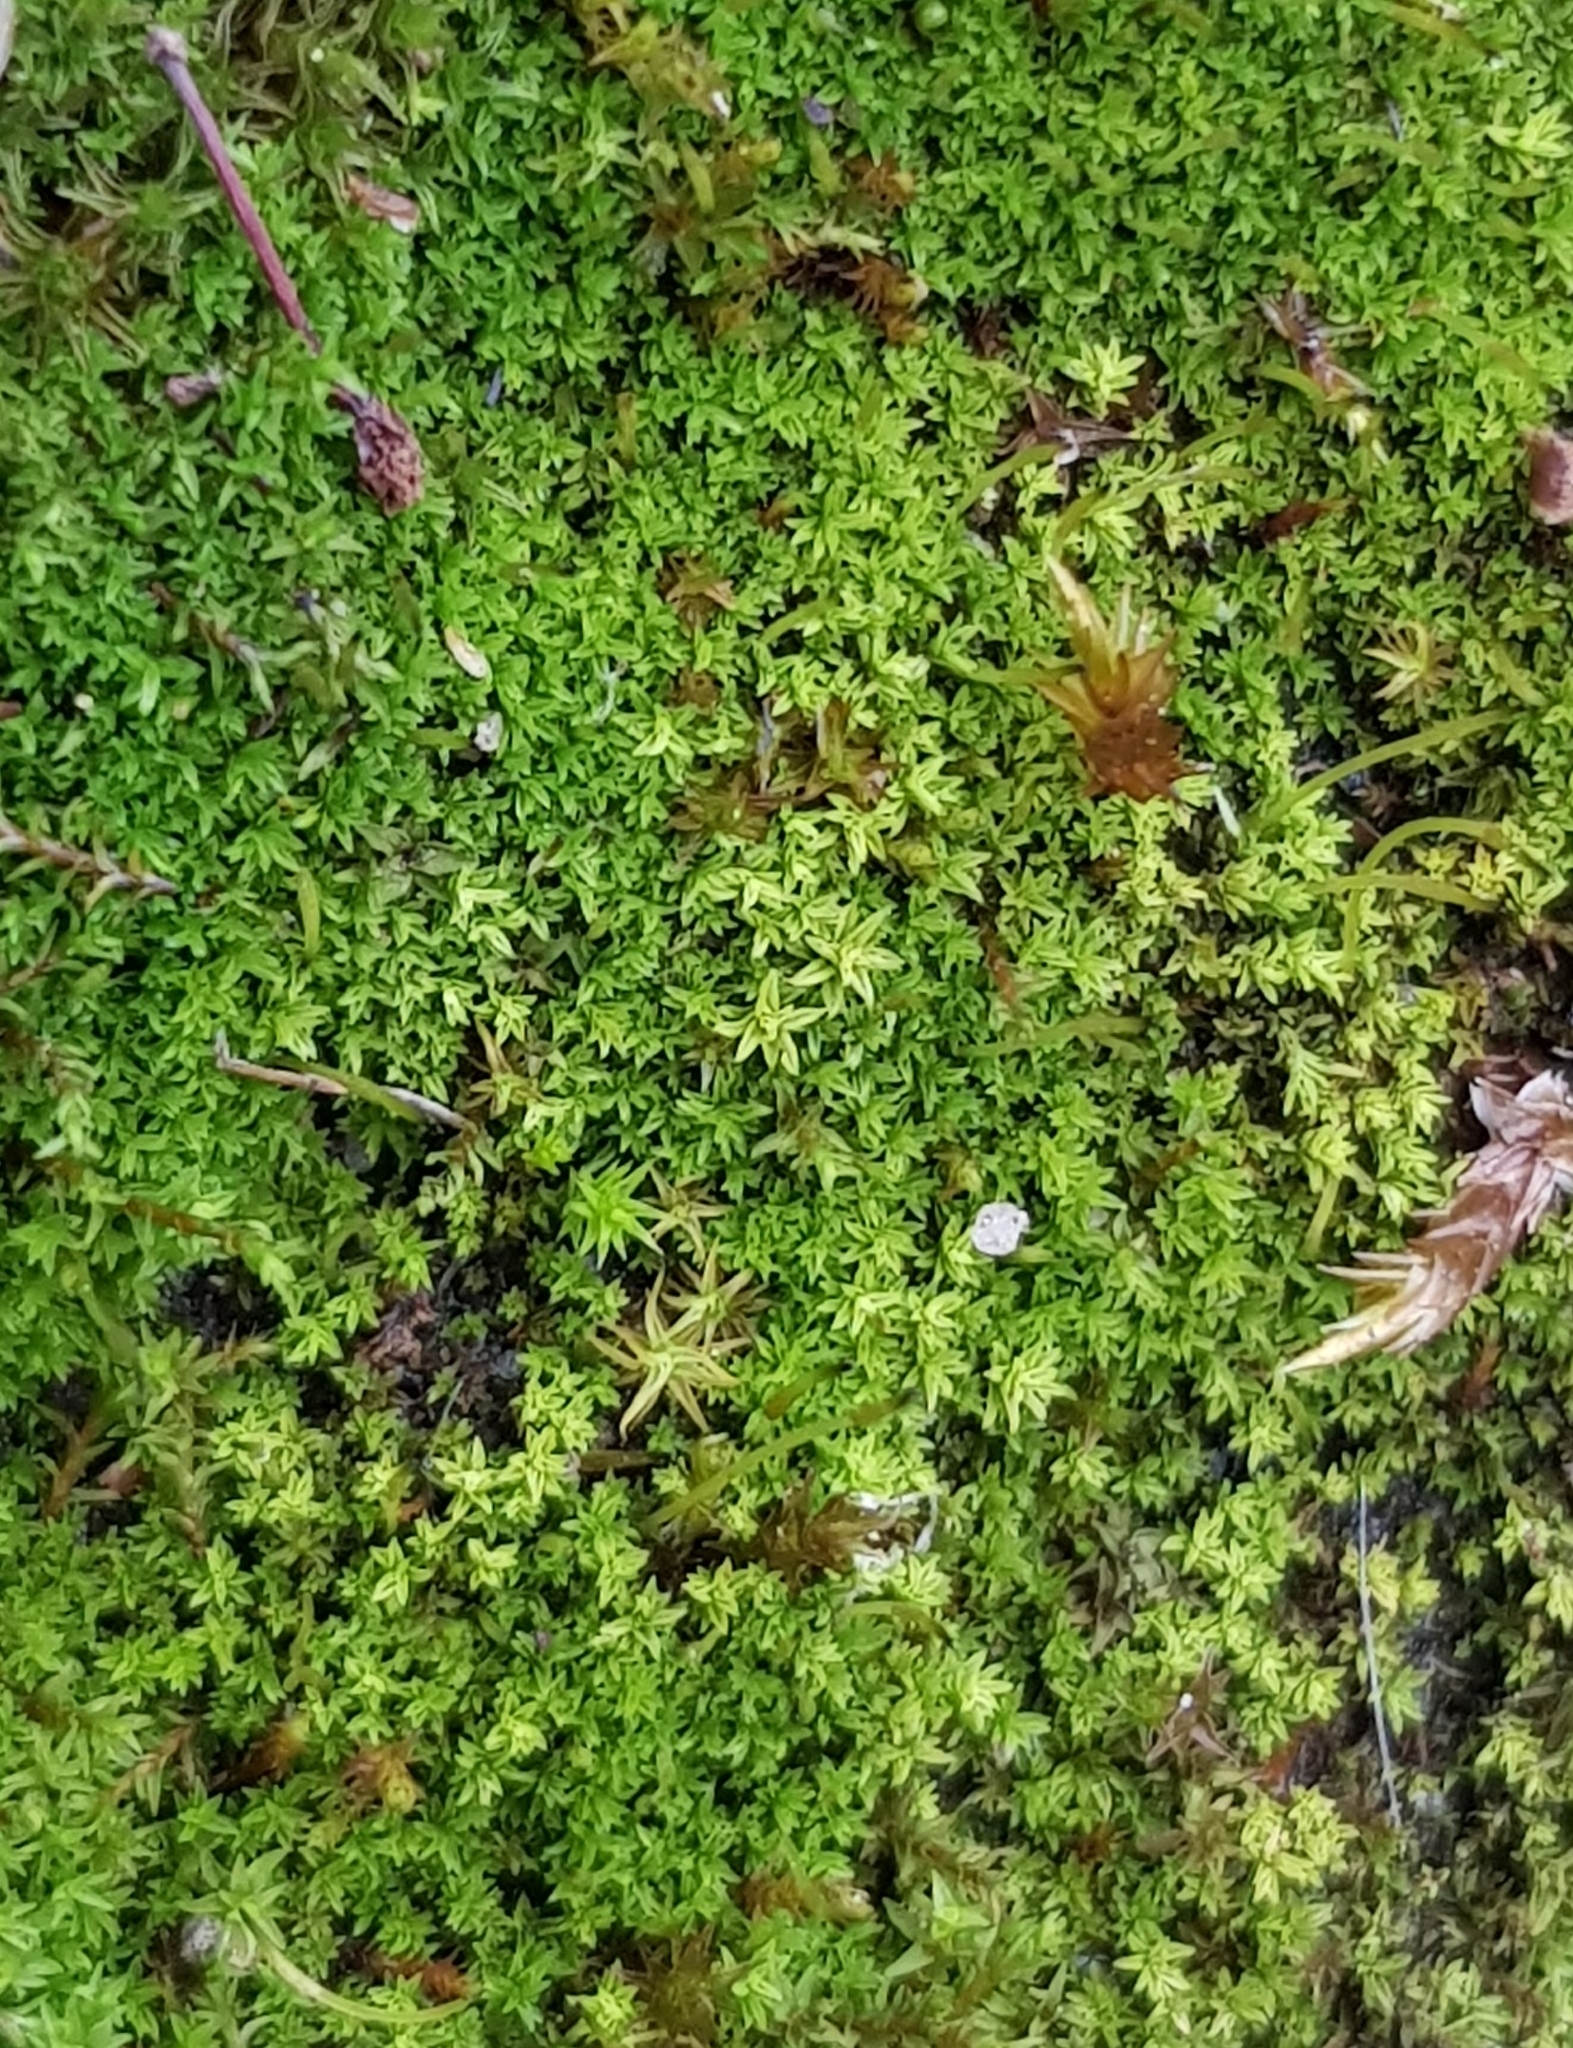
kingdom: Plantae
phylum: Bryophyta
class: Bryopsida
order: Pottiales
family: Pottiaceae
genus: Streblotrichum
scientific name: Streblotrichum convolutum
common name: Lesser bird's-claw beard-moss
